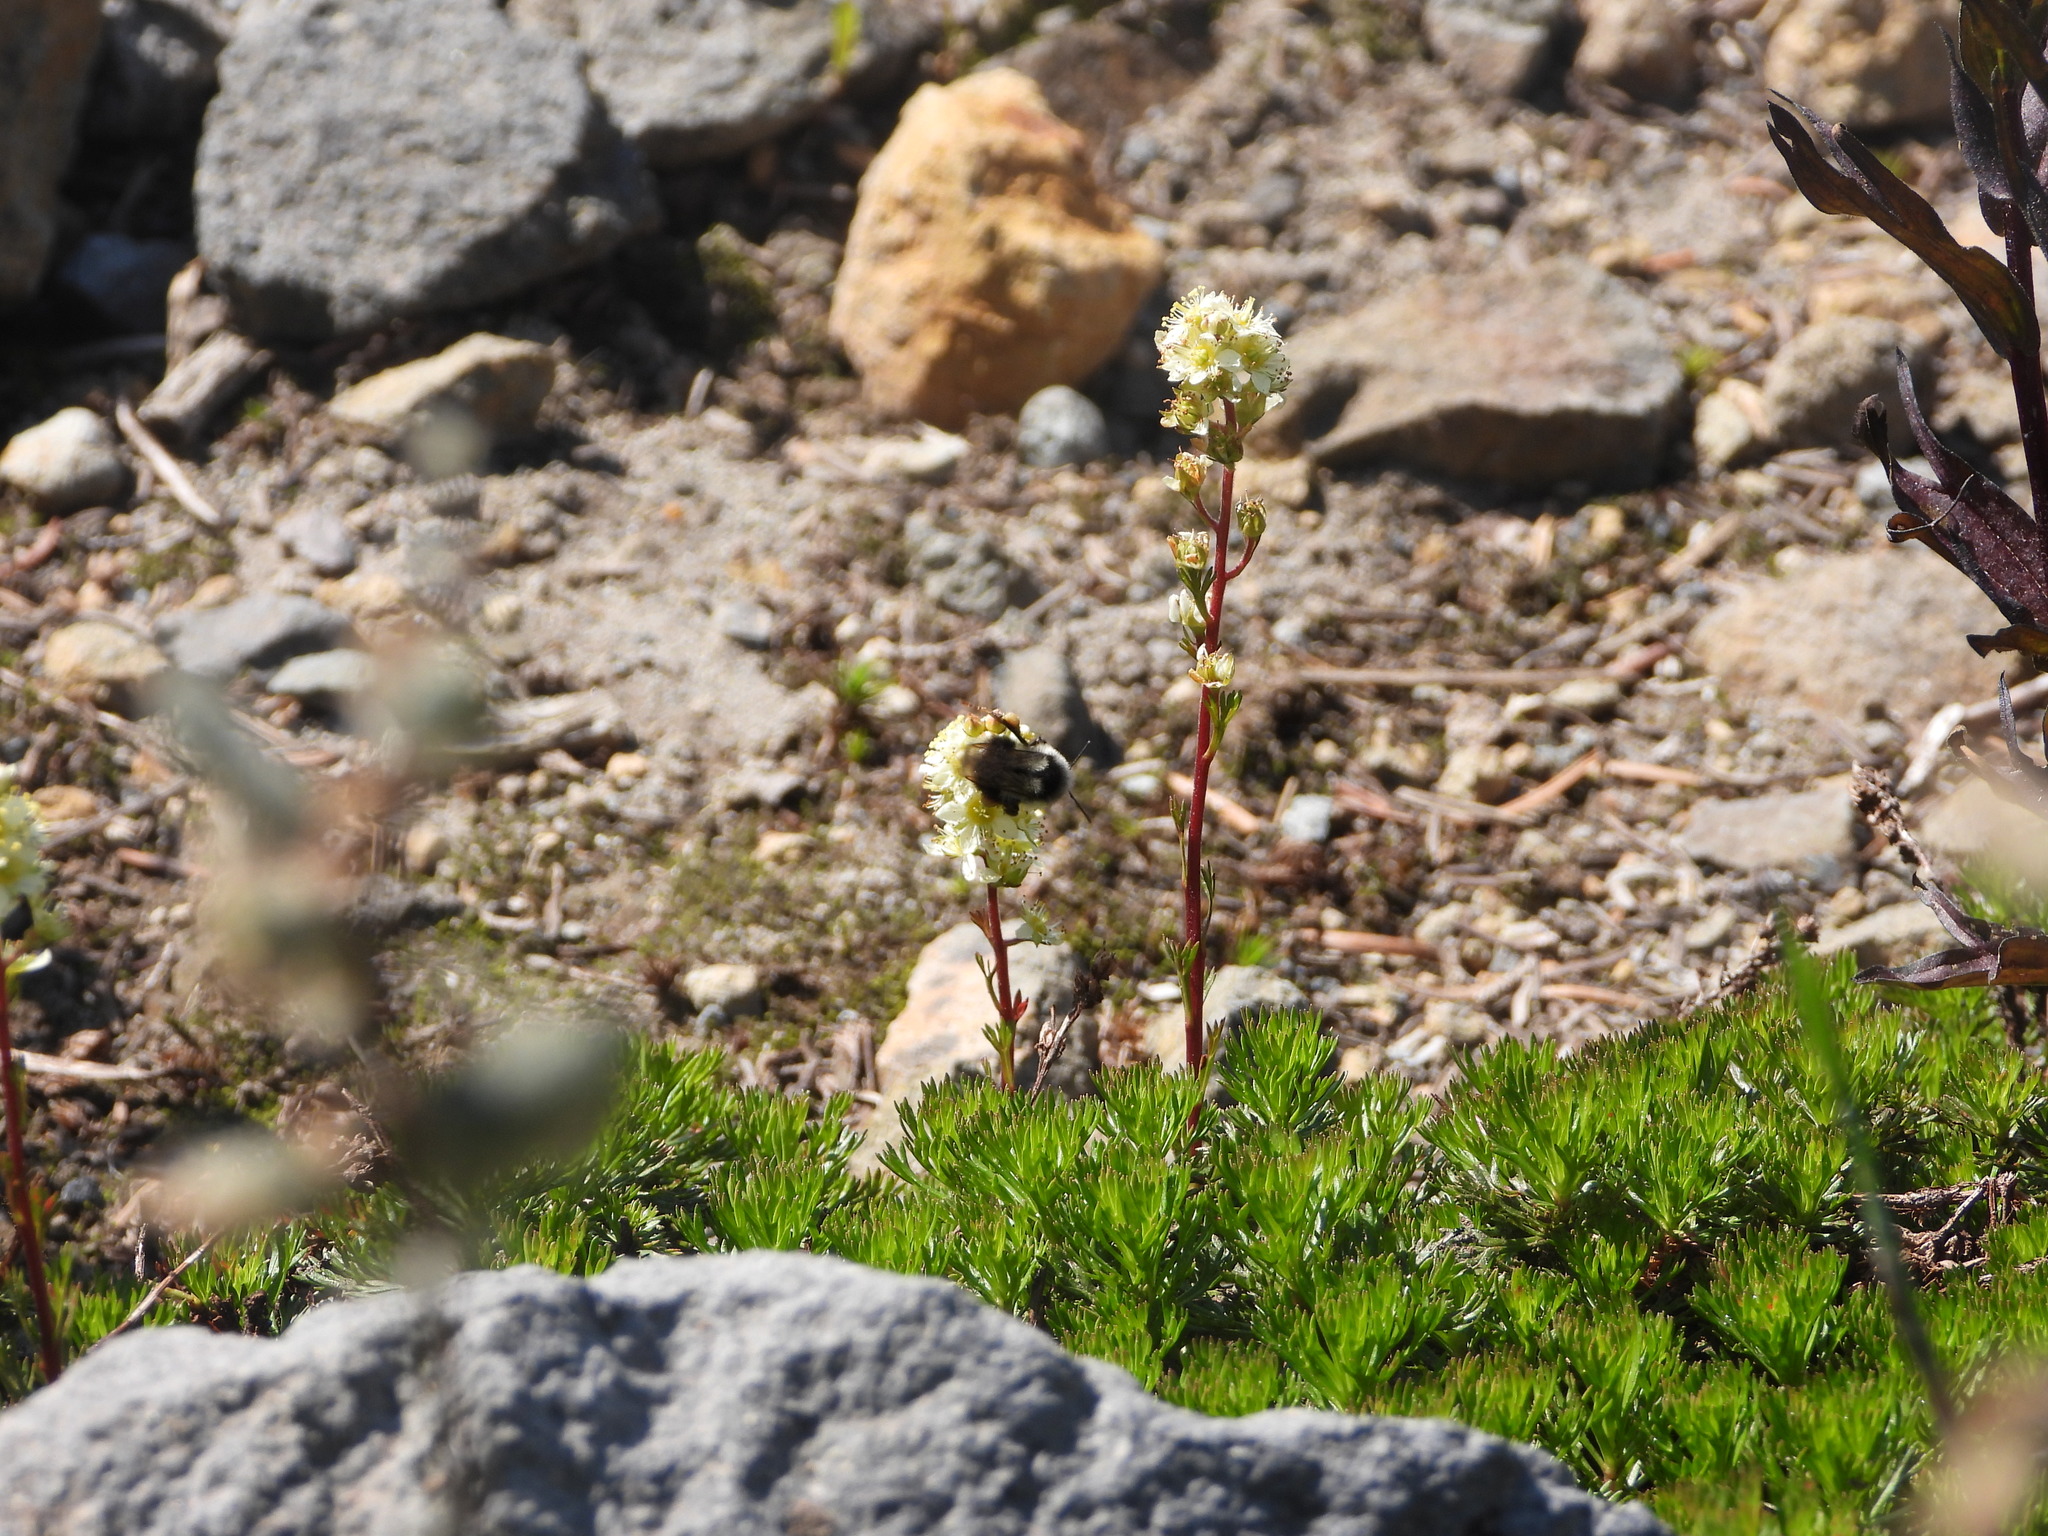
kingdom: Plantae
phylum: Tracheophyta
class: Magnoliopsida
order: Rosales
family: Rosaceae
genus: Luetkea
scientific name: Luetkea pectinata
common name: Partridgefoot
